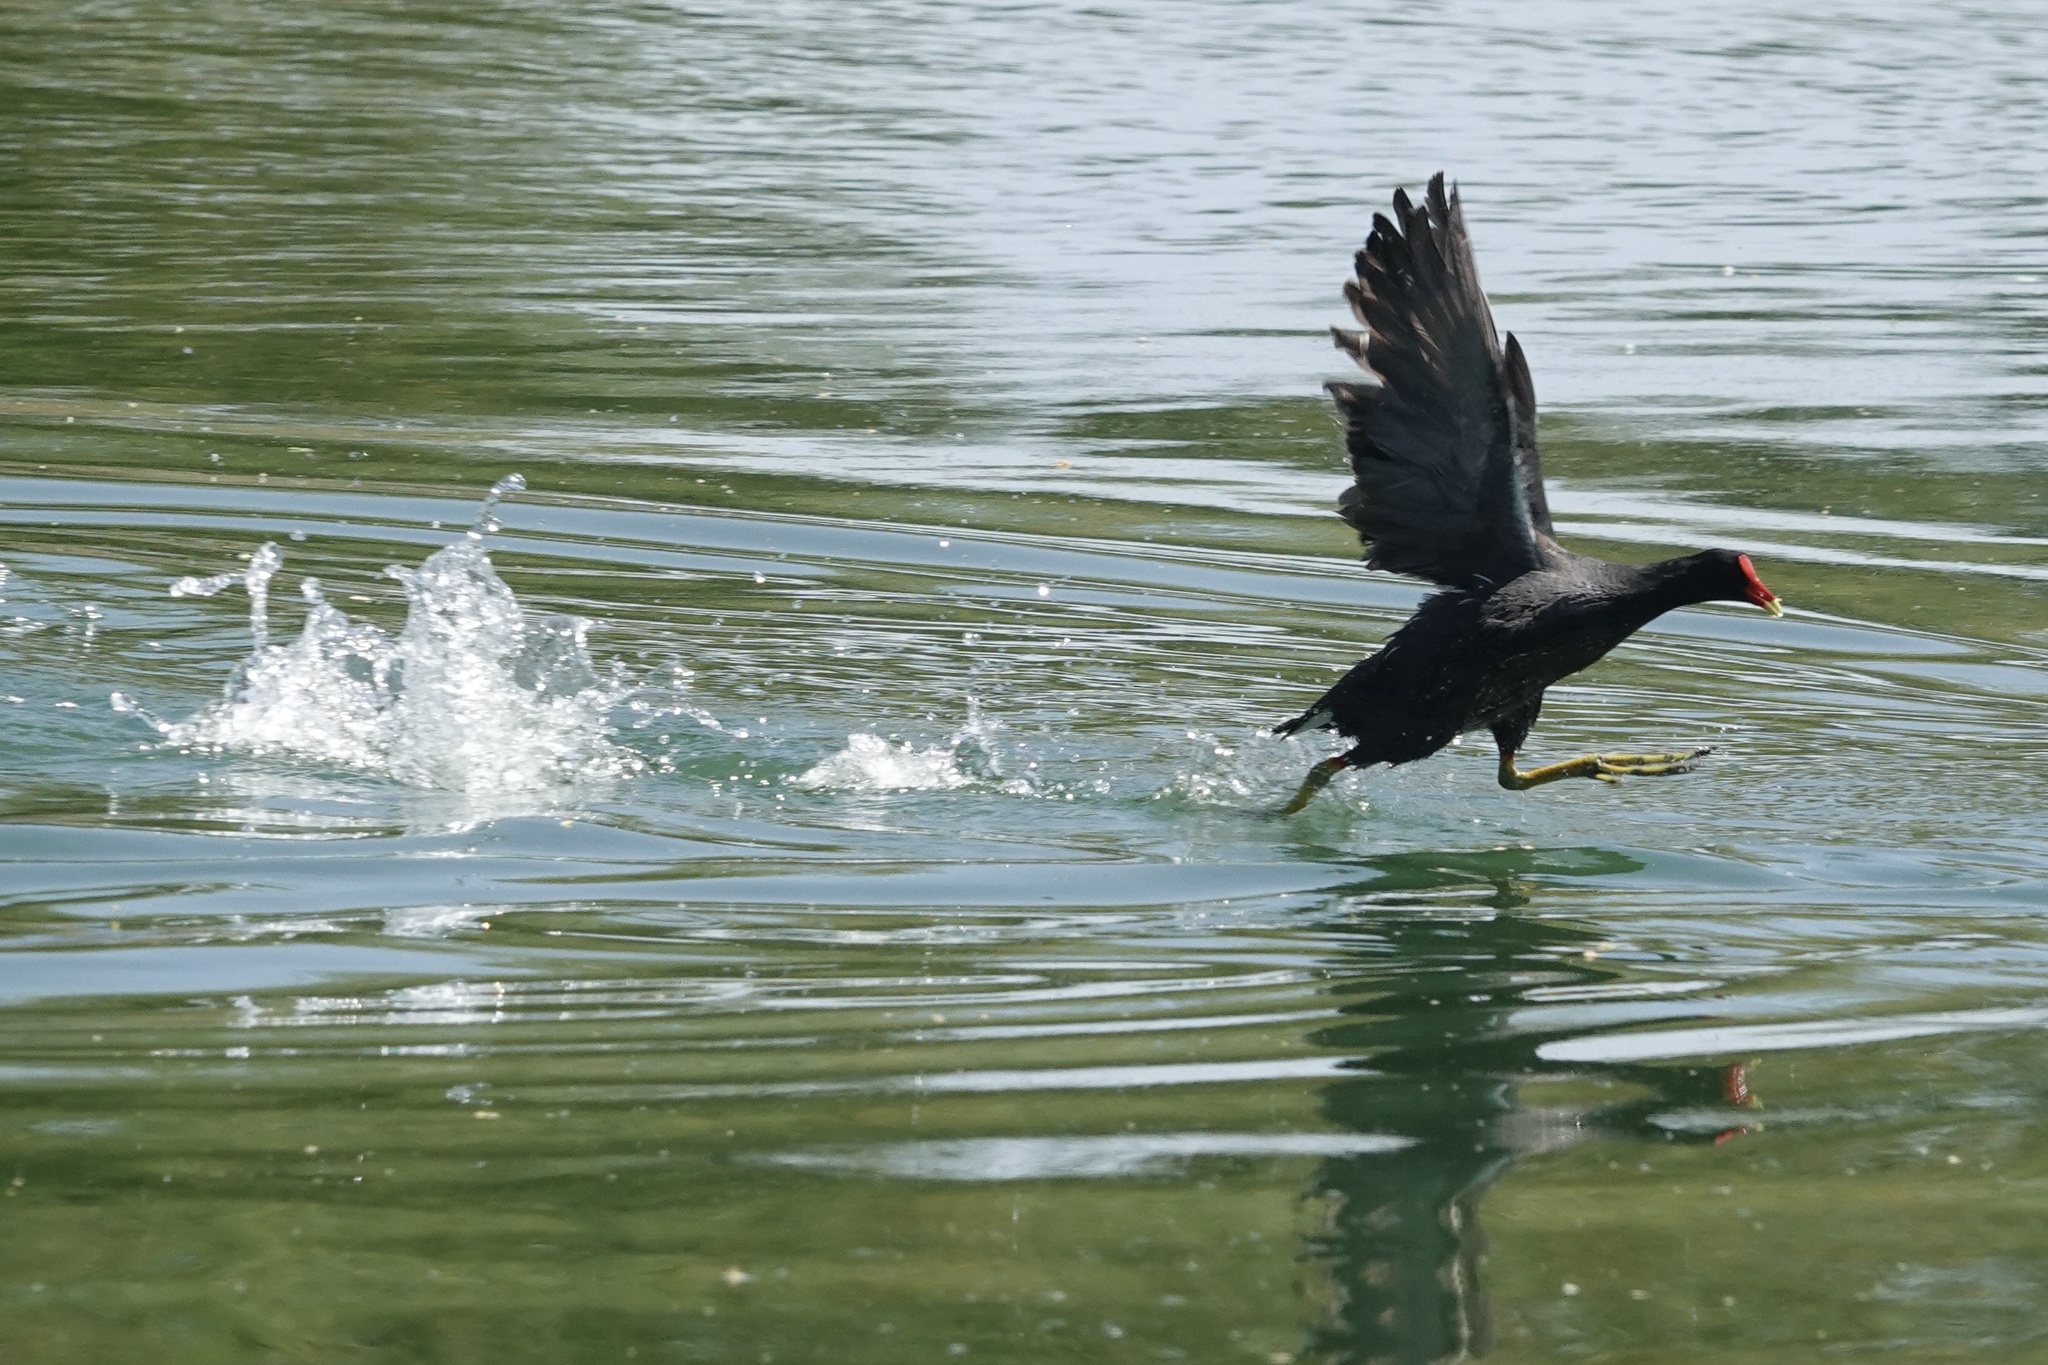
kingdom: Animalia
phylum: Chordata
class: Aves
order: Gruiformes
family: Rallidae
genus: Gallinula
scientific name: Gallinula chloropus
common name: Common moorhen
